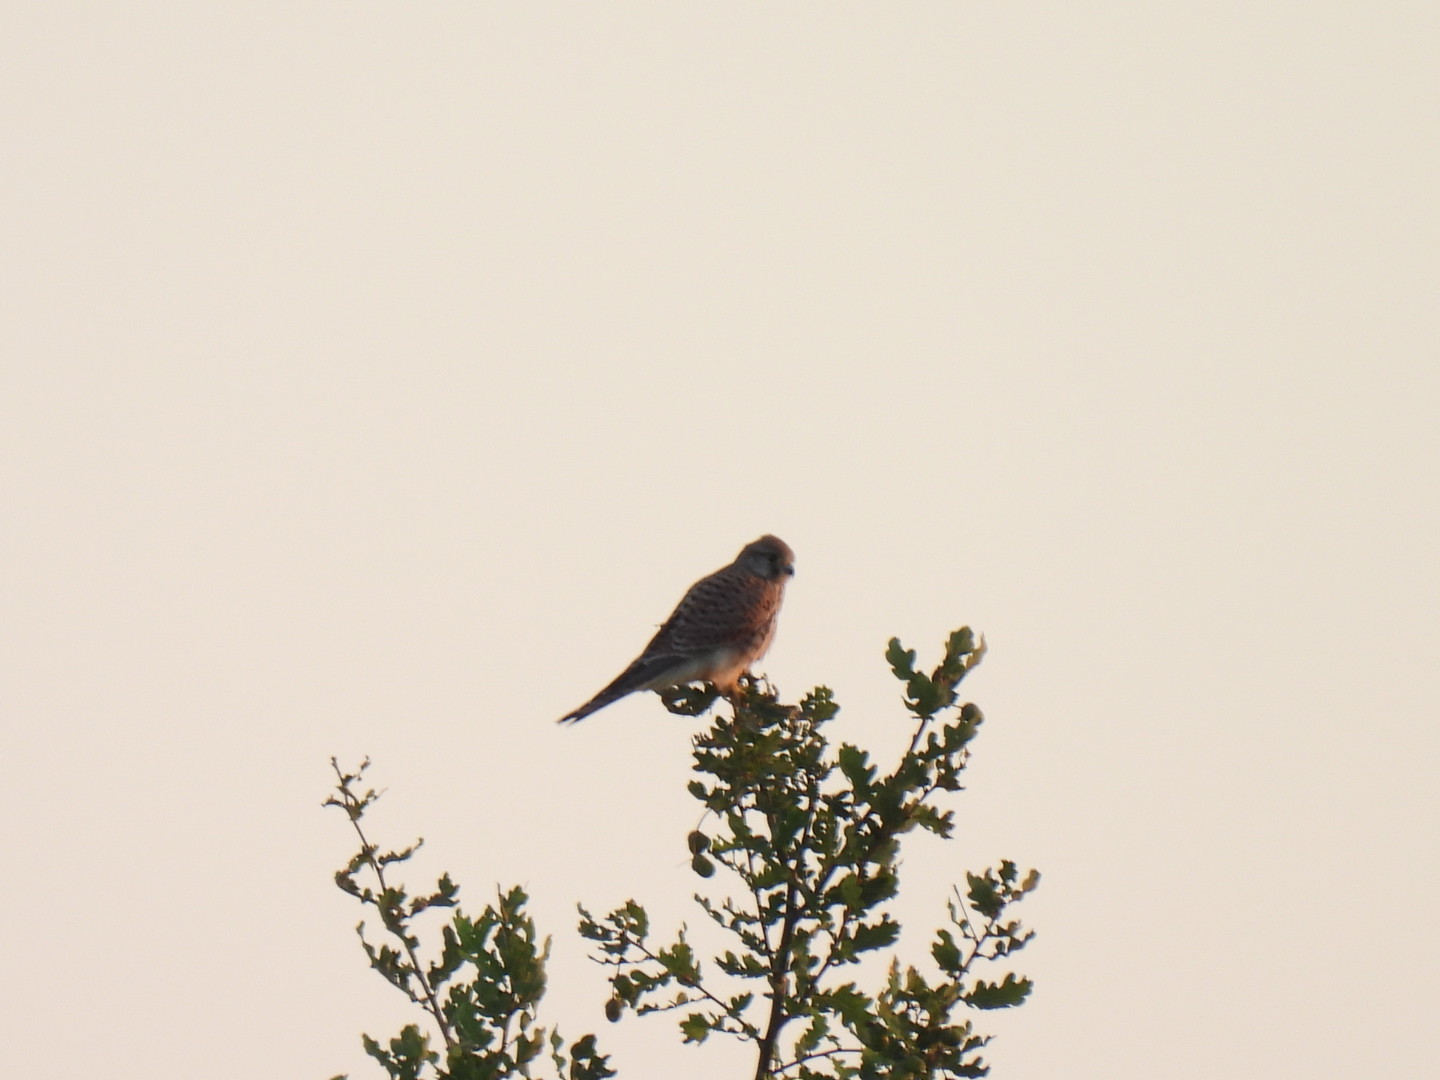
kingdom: Animalia
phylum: Chordata
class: Aves
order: Falconiformes
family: Falconidae
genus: Falco
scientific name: Falco tinnunculus
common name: Common kestrel
